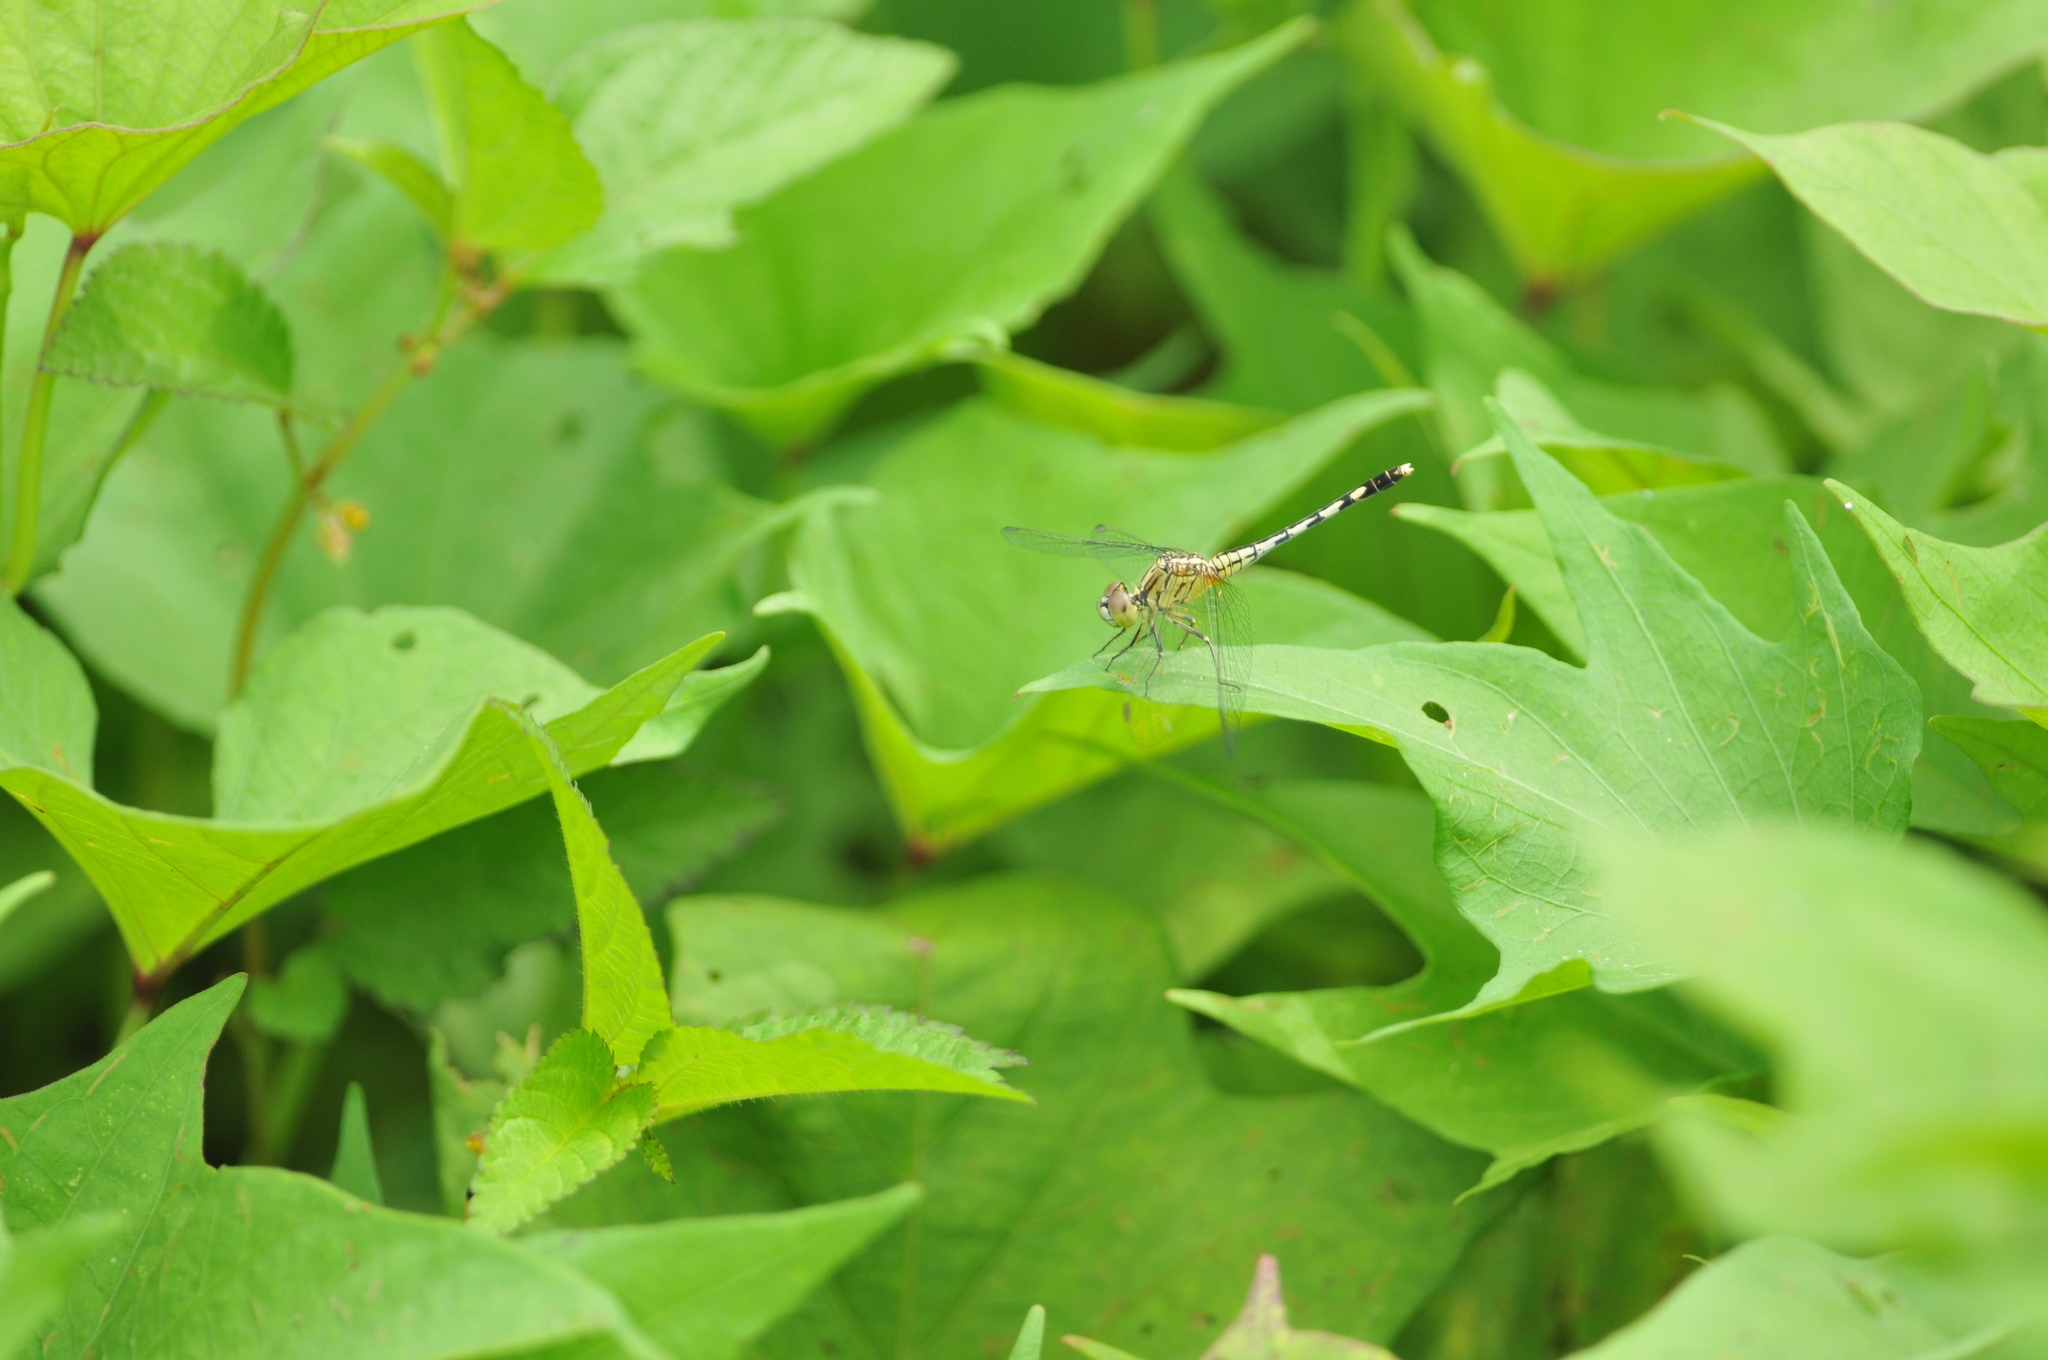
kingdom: Animalia
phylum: Arthropoda
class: Insecta
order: Odonata
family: Libellulidae
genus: Diplacodes
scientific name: Diplacodes trivialis
